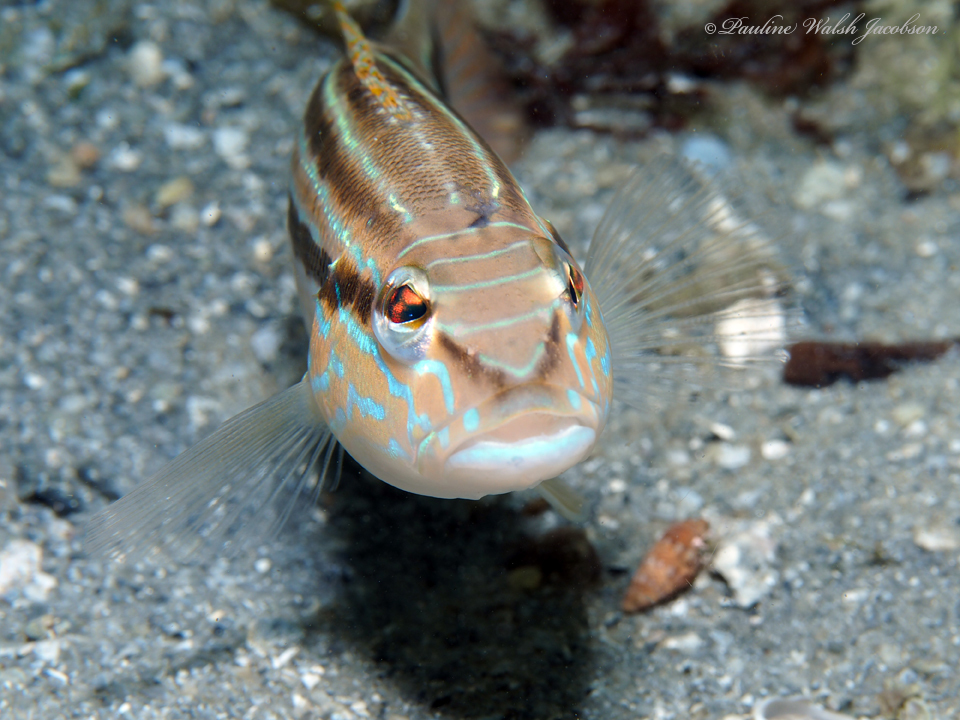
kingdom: Animalia
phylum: Chordata
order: Perciformes
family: Serranidae
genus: Diplectrum
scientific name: Diplectrum formosum
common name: Sand perch
